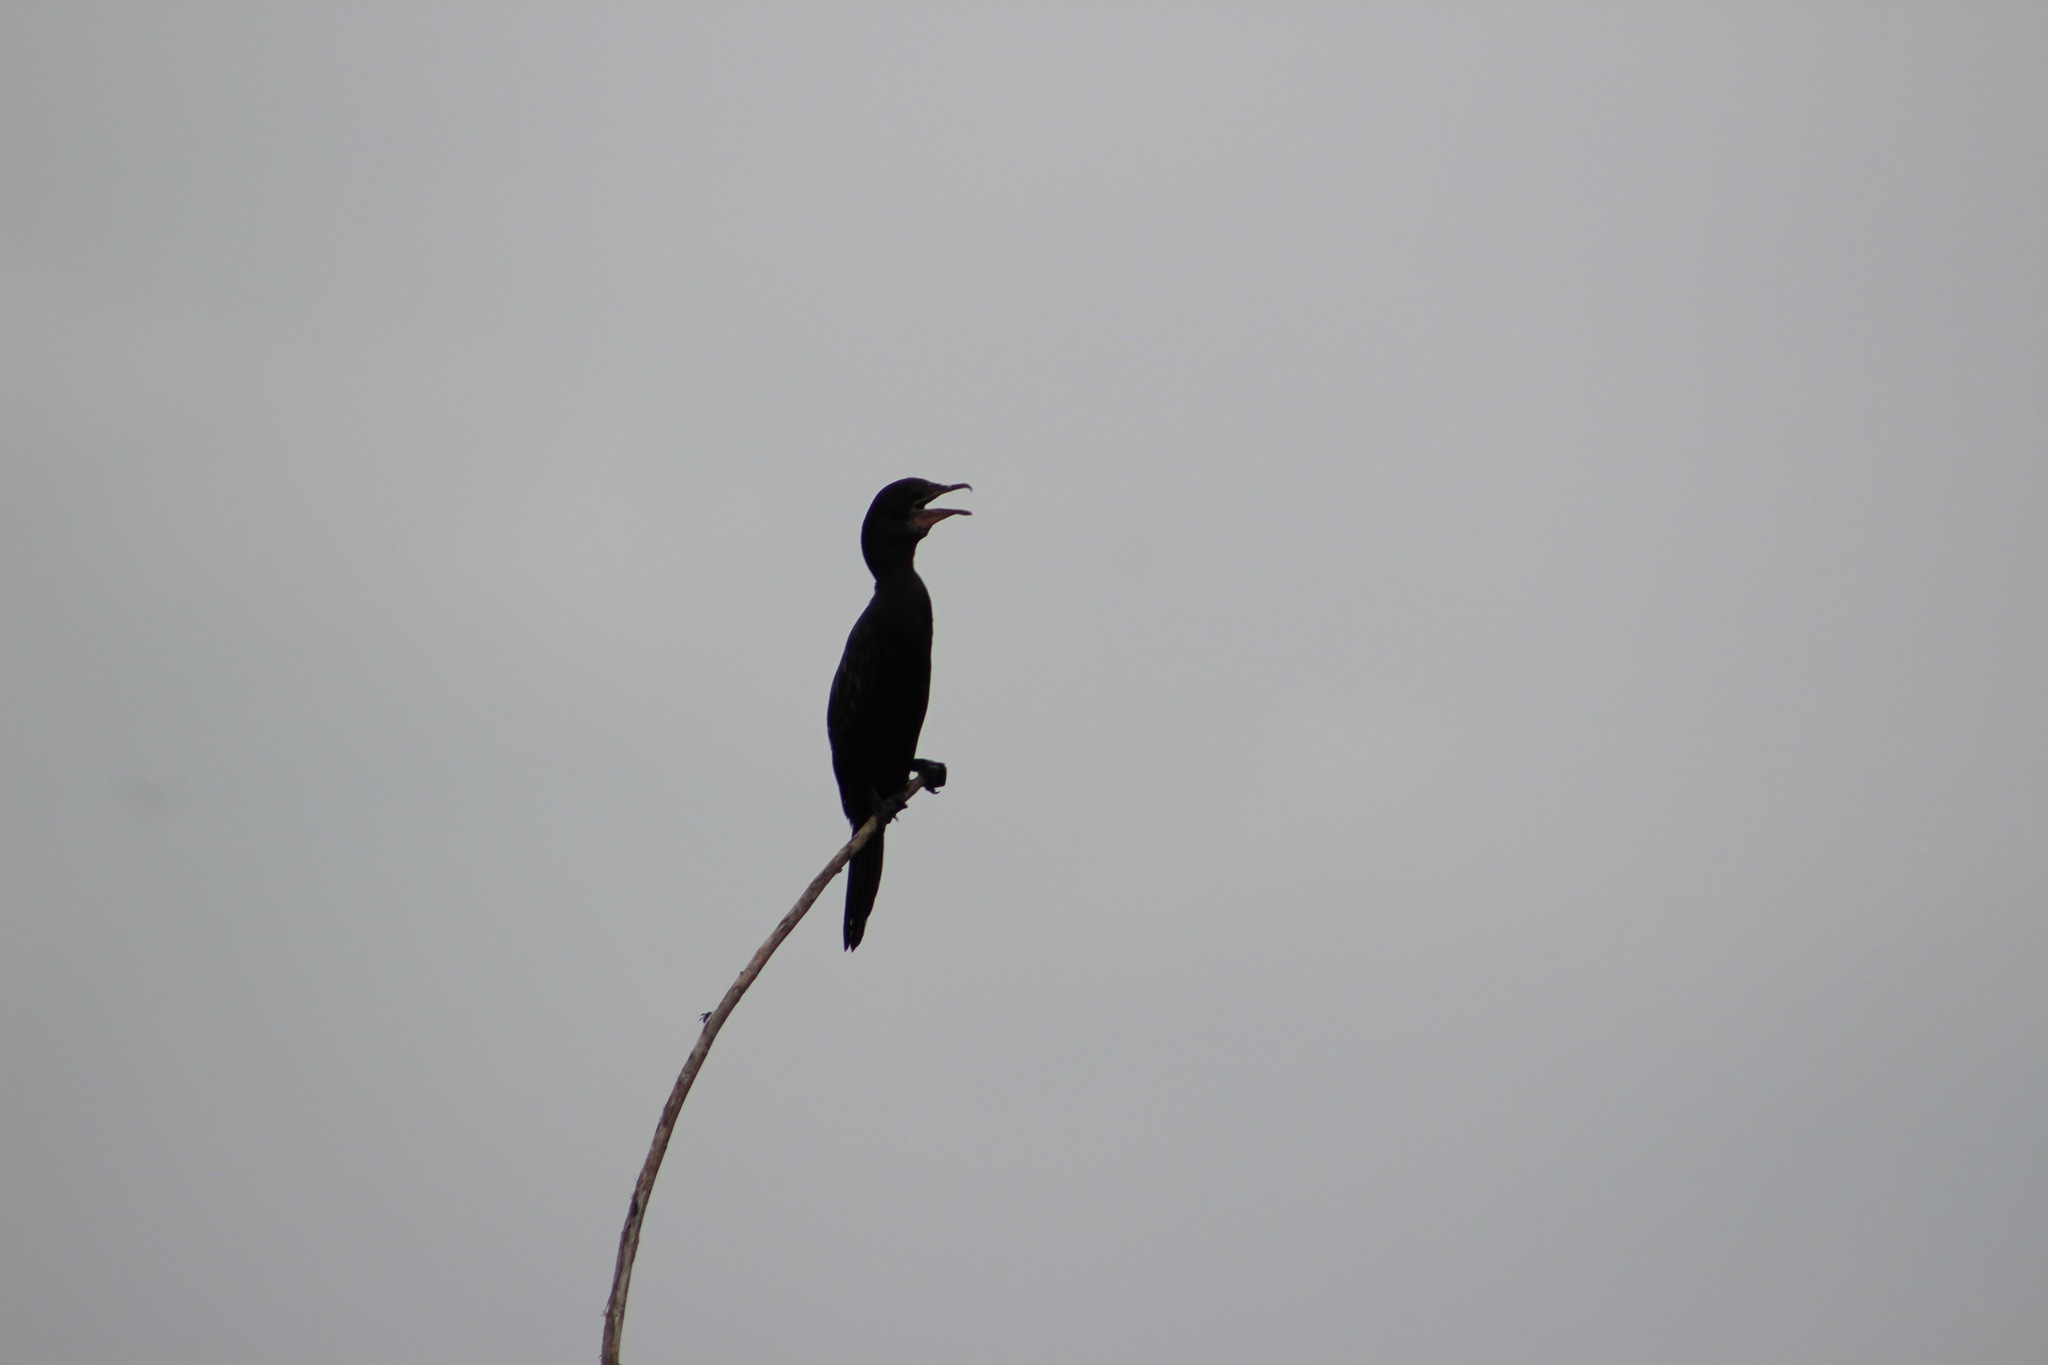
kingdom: Animalia
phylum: Chordata
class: Aves
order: Suliformes
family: Phalacrocoracidae
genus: Microcarbo
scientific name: Microcarbo niger
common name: Little cormorant
